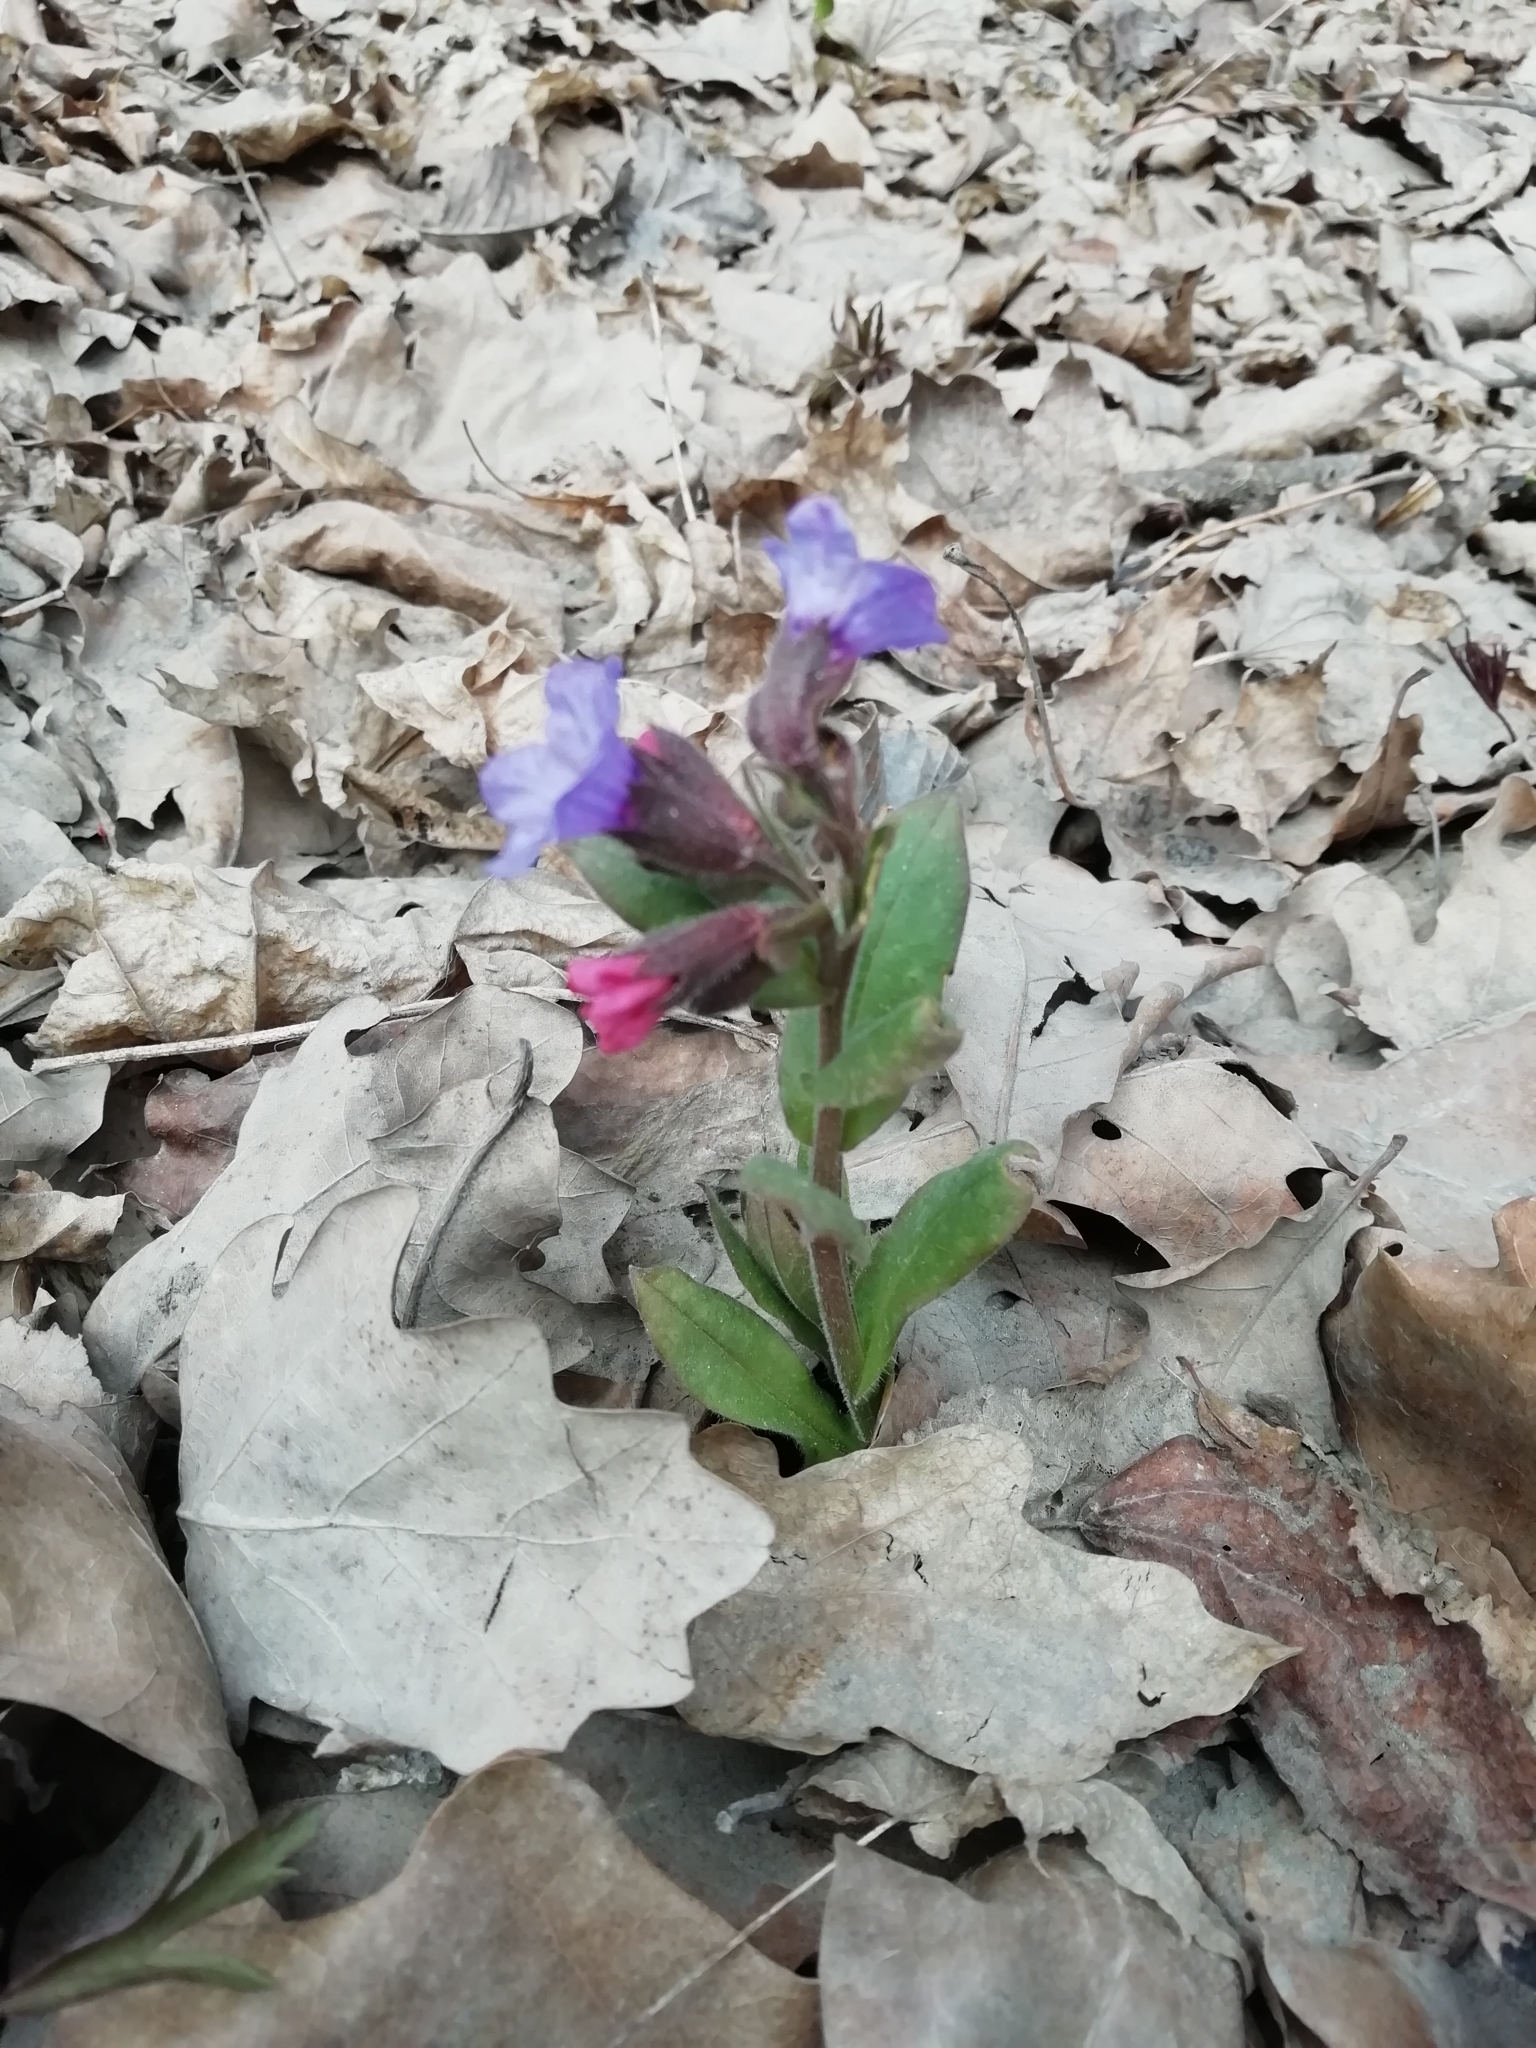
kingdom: Plantae
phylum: Tracheophyta
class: Magnoliopsida
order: Boraginales
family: Boraginaceae
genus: Pulmonaria
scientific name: Pulmonaria obscura
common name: Suffolk lungwort
